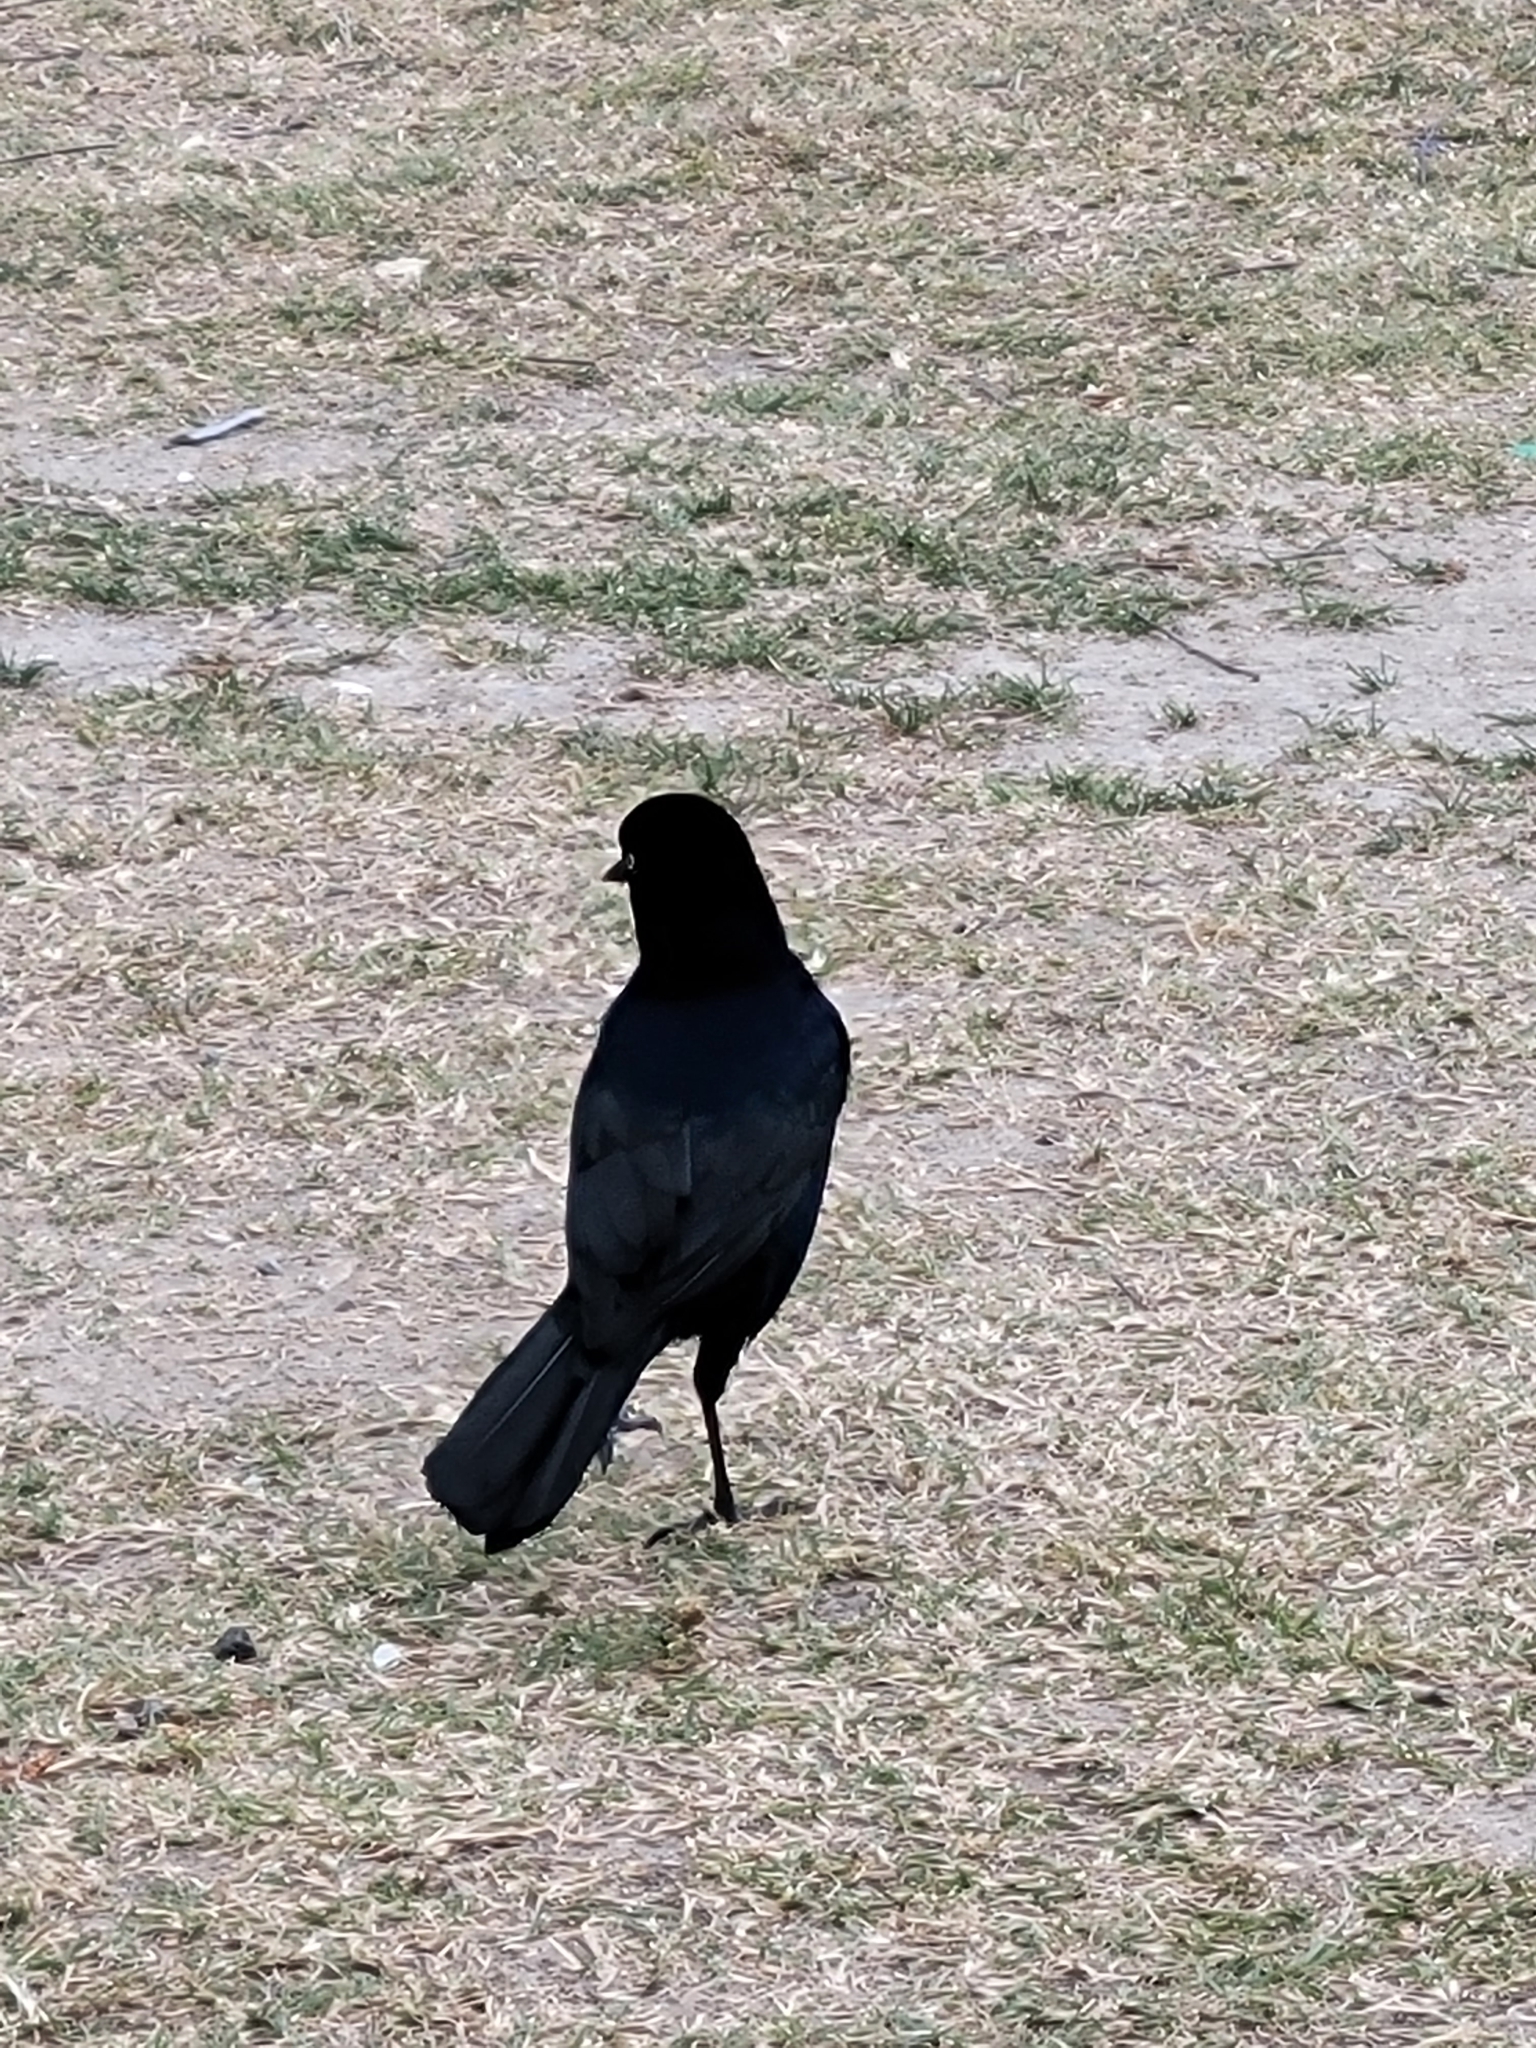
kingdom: Animalia
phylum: Chordata
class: Aves
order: Passeriformes
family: Icteridae
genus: Quiscalus
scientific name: Quiscalus major
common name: Boat-tailed grackle
